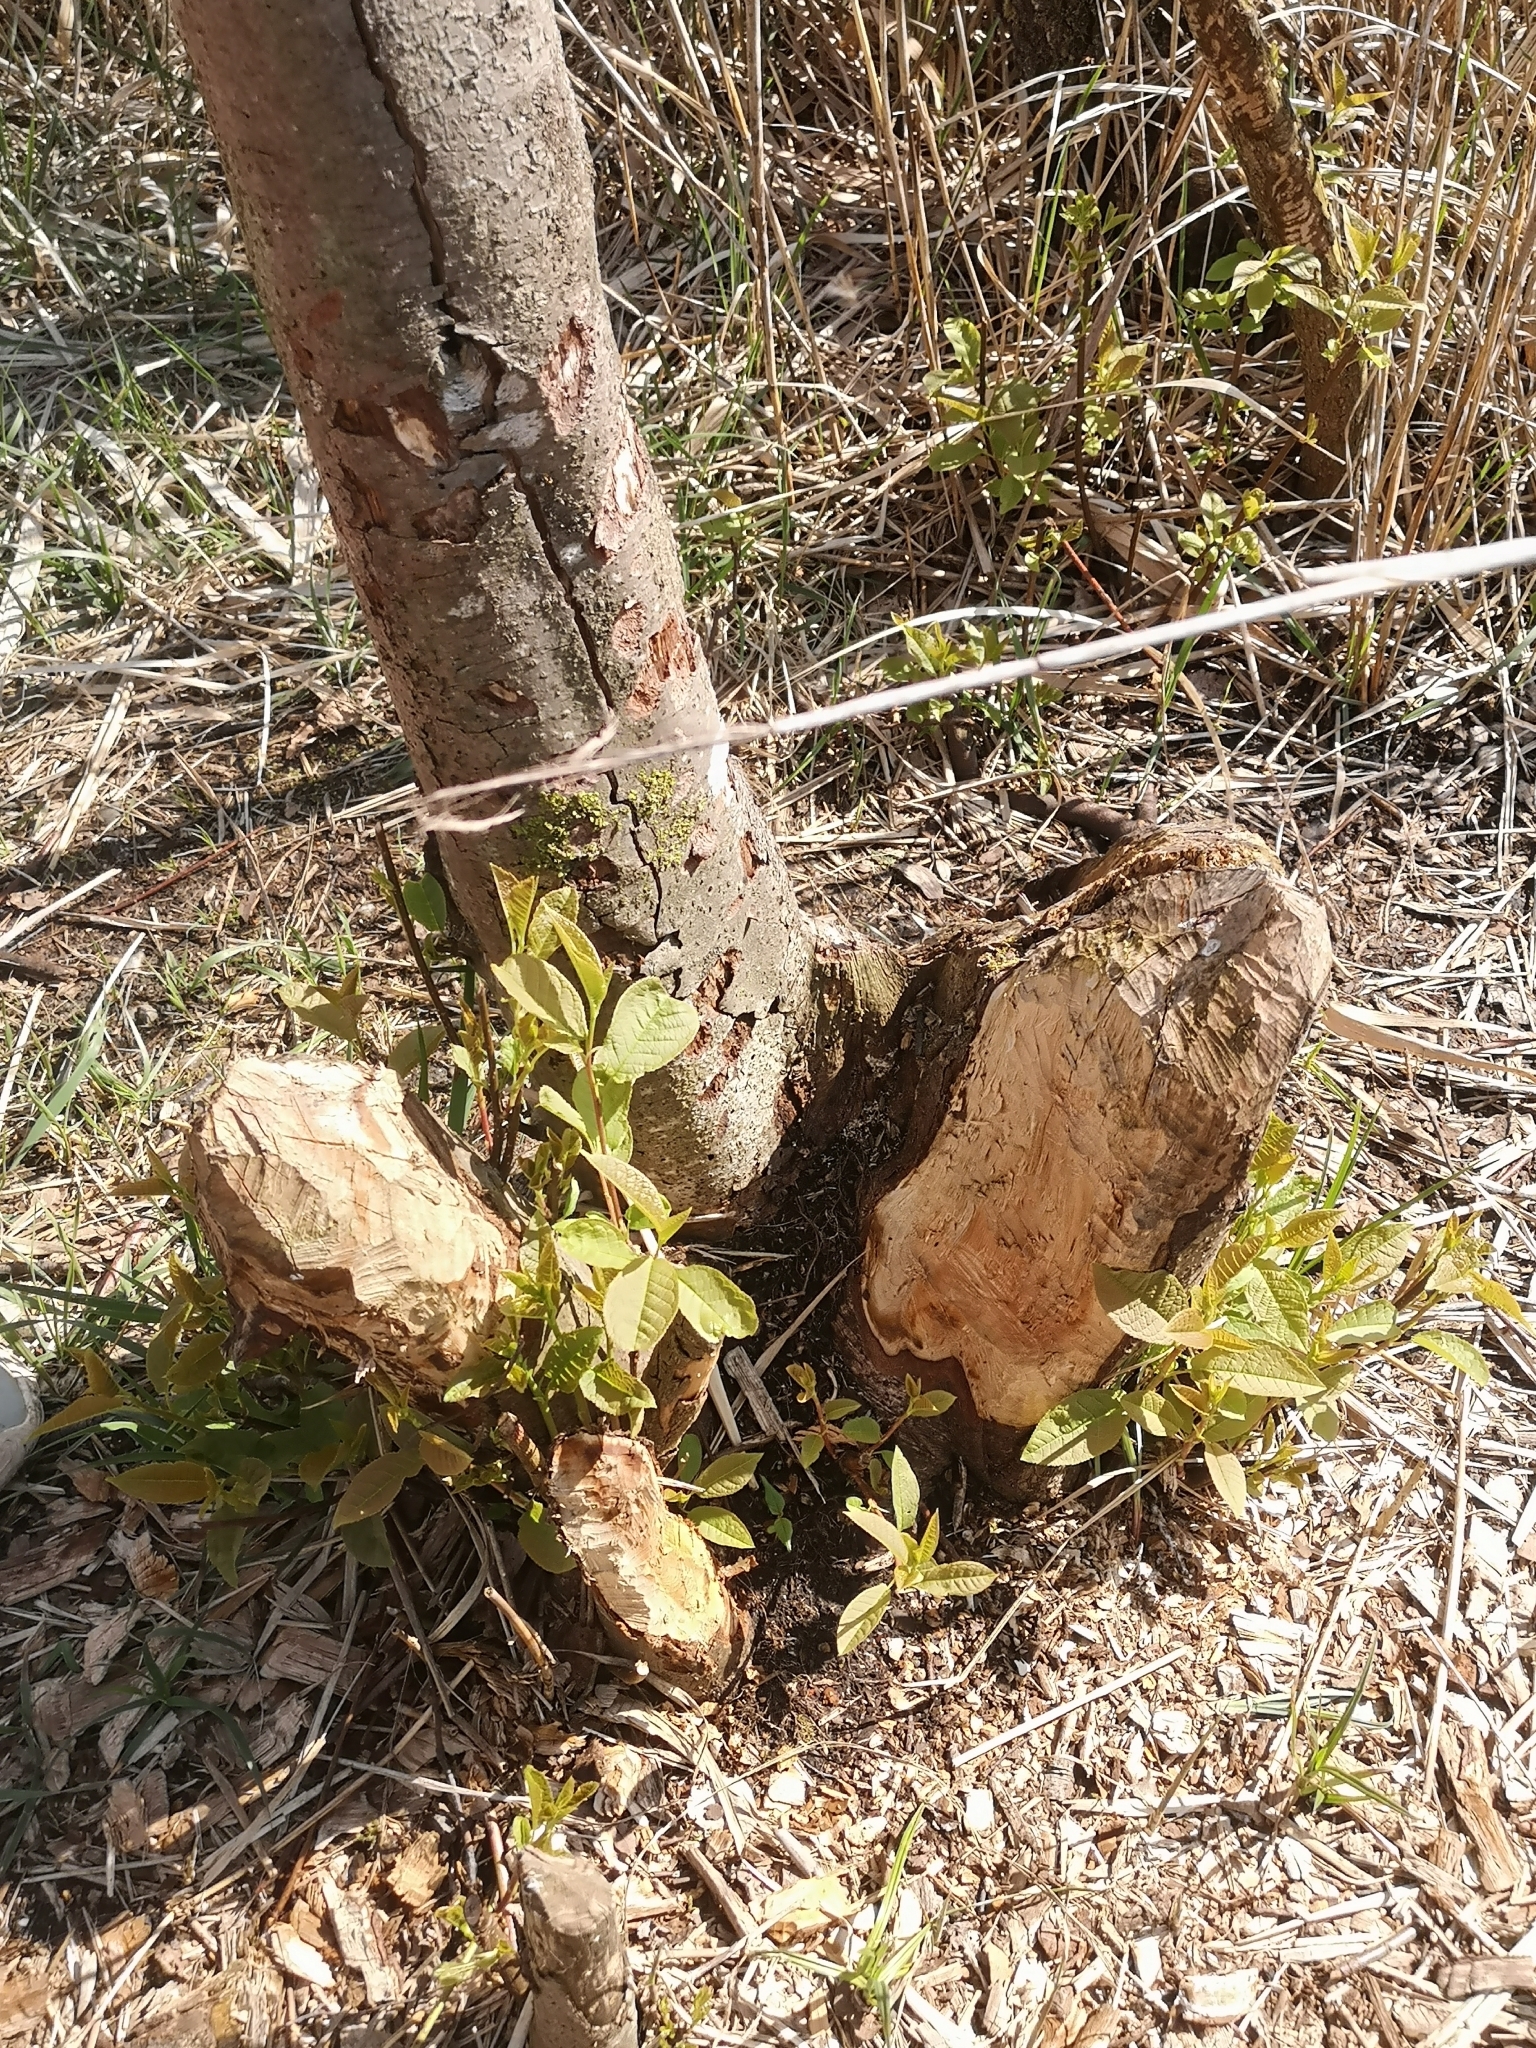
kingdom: Animalia
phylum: Chordata
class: Mammalia
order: Rodentia
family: Castoridae
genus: Castor
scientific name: Castor fiber
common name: Eurasian beaver
